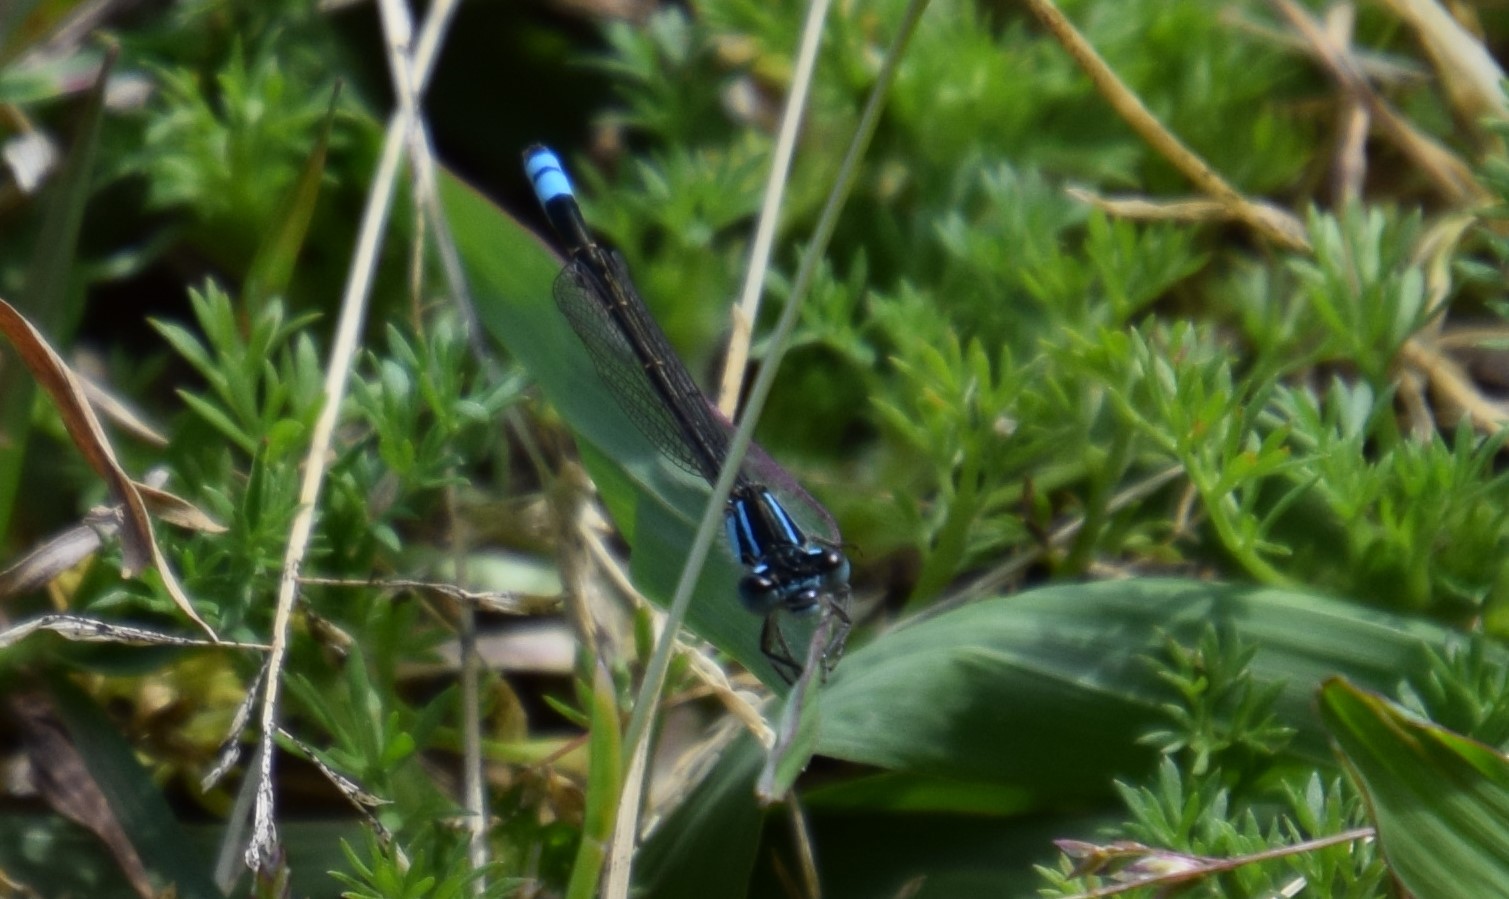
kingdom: Animalia
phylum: Arthropoda
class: Insecta
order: Odonata
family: Coenagrionidae
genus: Ischnura
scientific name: Ischnura heterosticta
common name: Common bluetail
